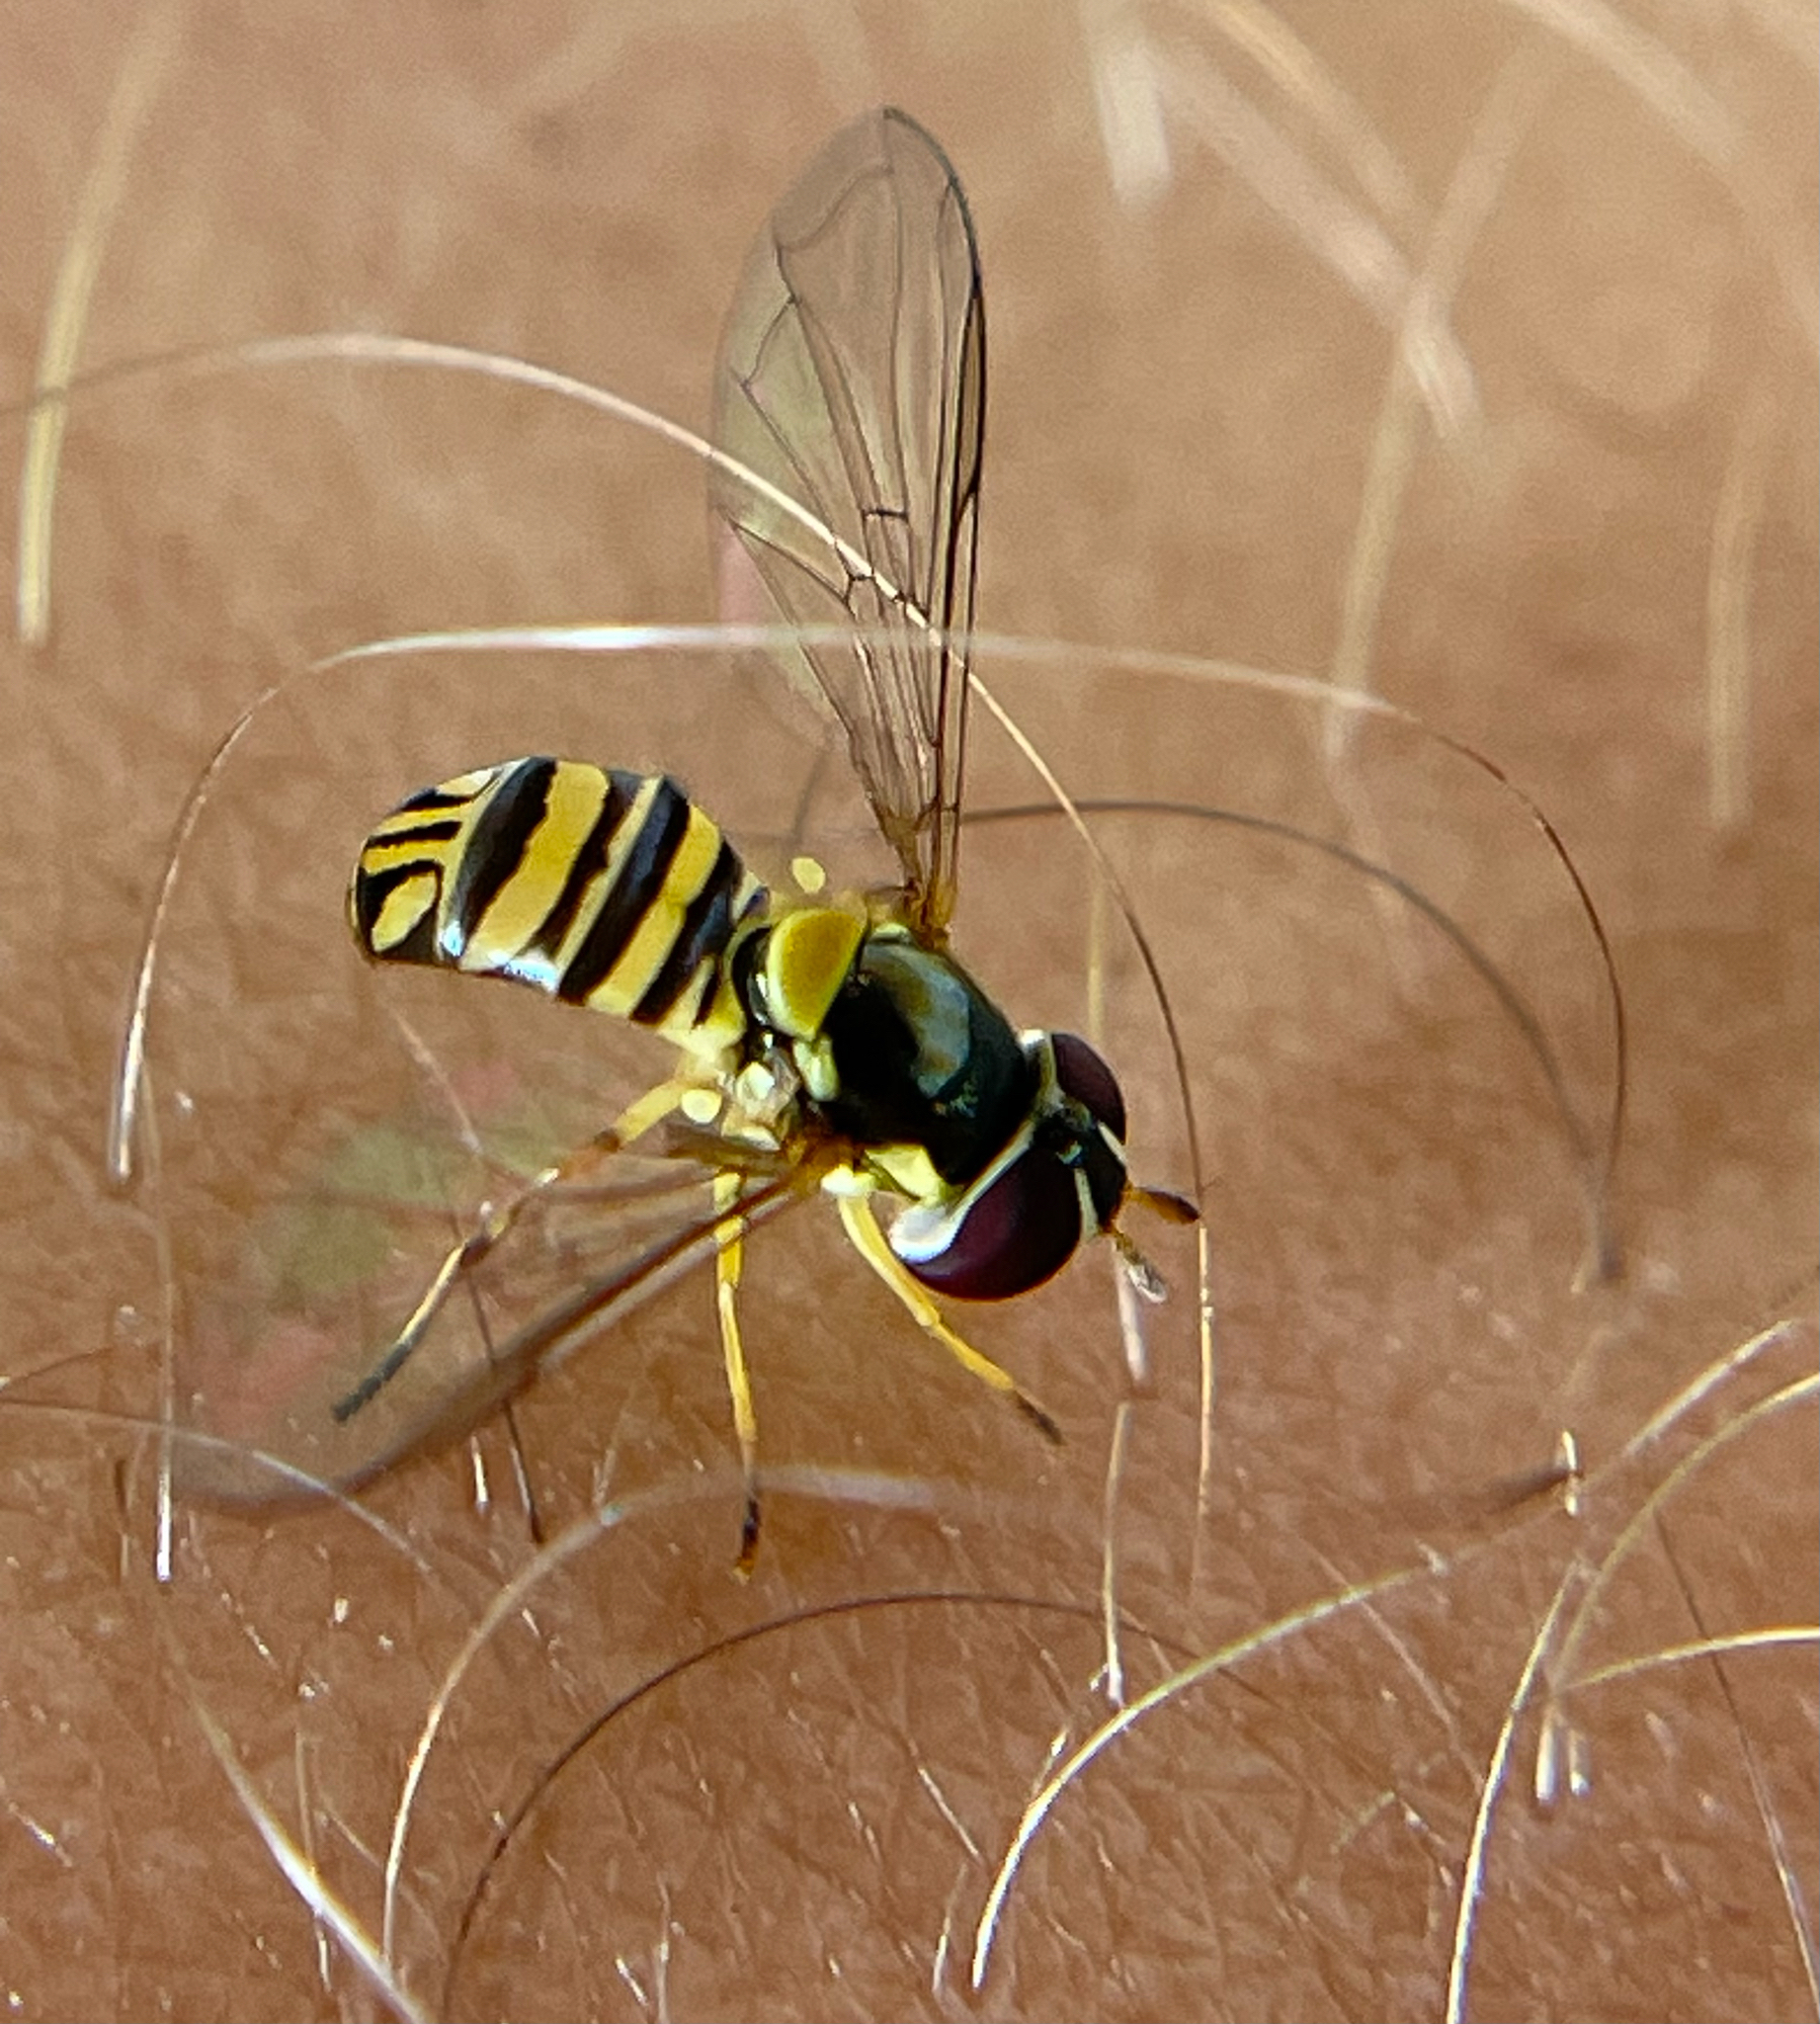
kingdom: Animalia
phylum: Arthropoda
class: Insecta
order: Diptera
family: Syrphidae
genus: Allograpta
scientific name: Allograpta obliqua
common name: Common oblique syrphid
